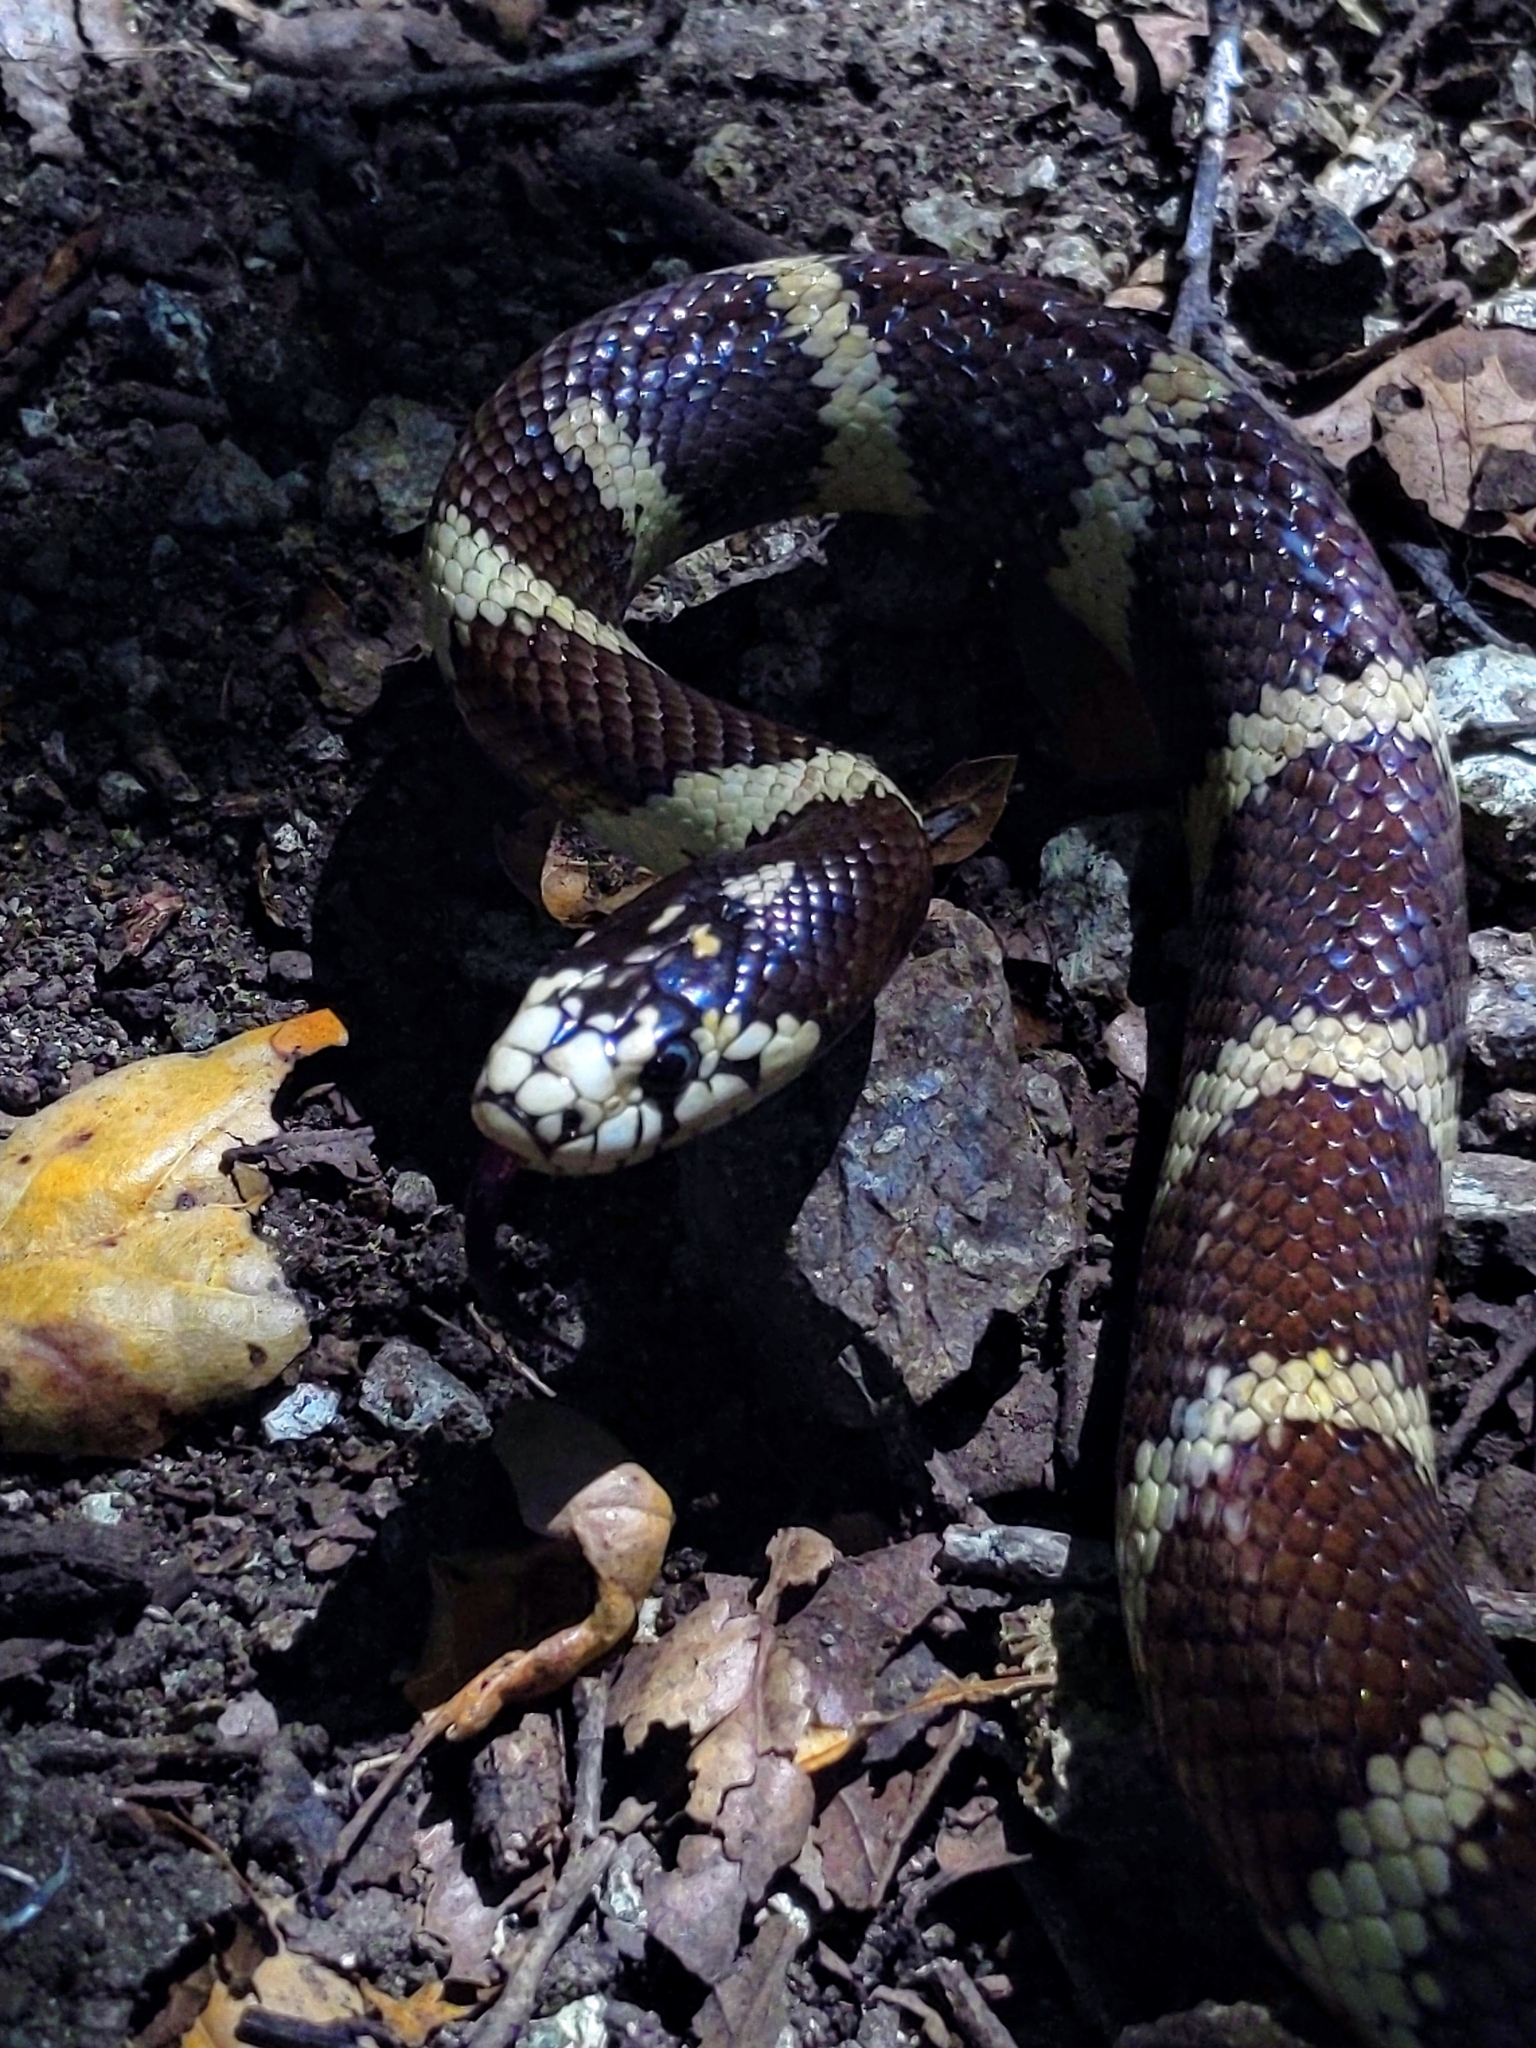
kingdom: Animalia
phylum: Chordata
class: Squamata
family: Colubridae
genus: Lampropeltis
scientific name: Lampropeltis californiae
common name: California kingsnake
